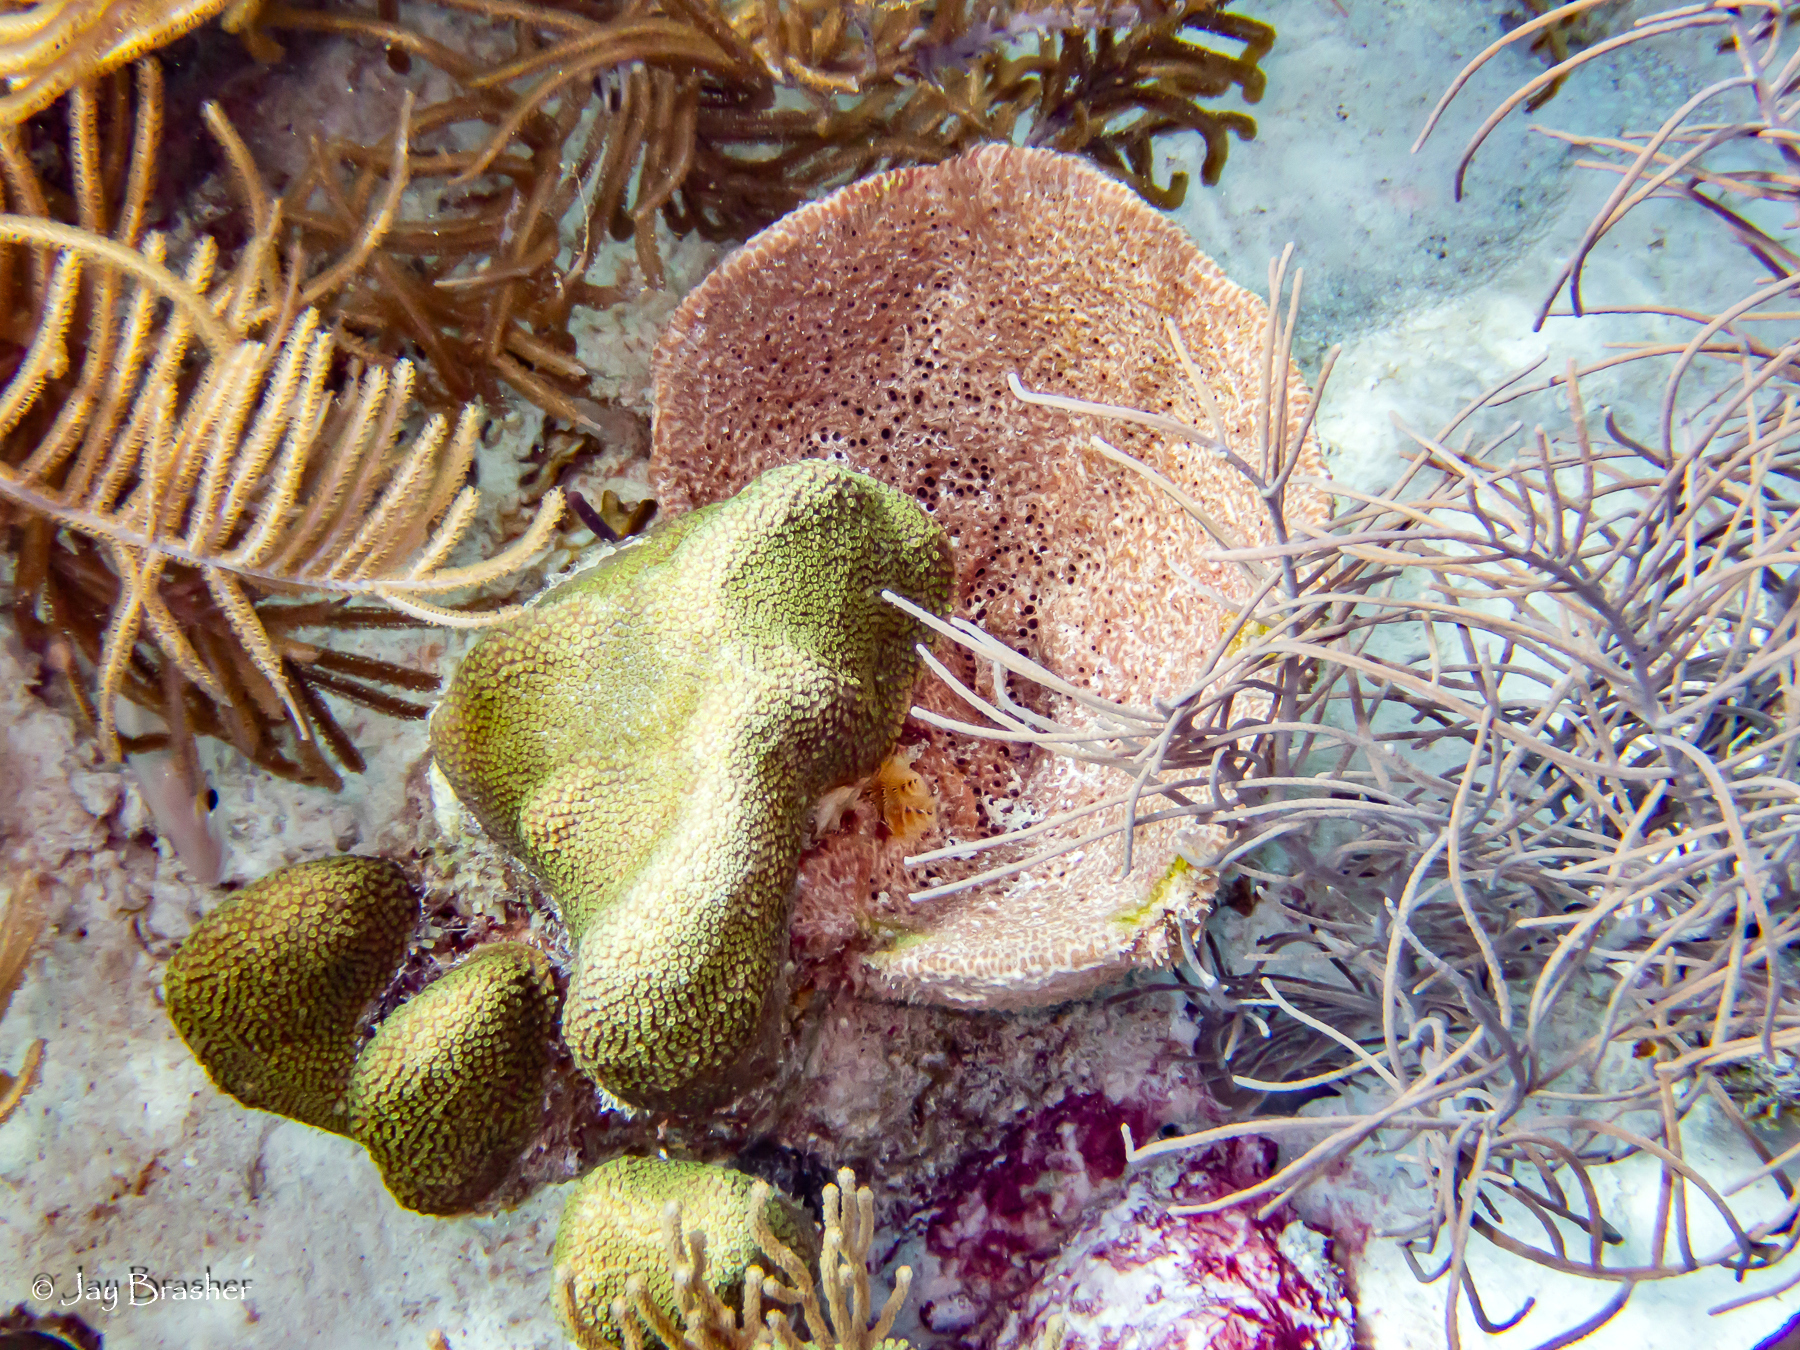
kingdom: Animalia
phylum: Porifera
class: Demospongiae
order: Dictyoceratida
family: Irciniidae
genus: Ircinia
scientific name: Ircinia campana
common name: Vase sponge
